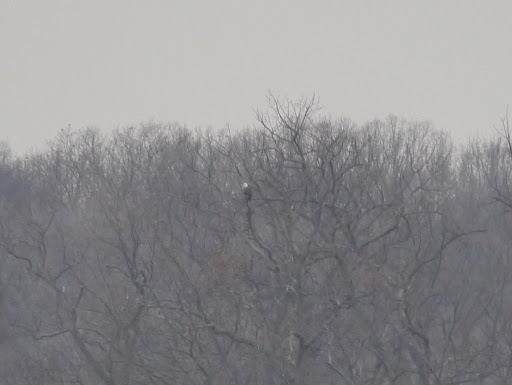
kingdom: Animalia
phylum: Chordata
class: Aves
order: Accipitriformes
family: Accipitridae
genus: Haliaeetus
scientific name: Haliaeetus leucocephalus
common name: Bald eagle
